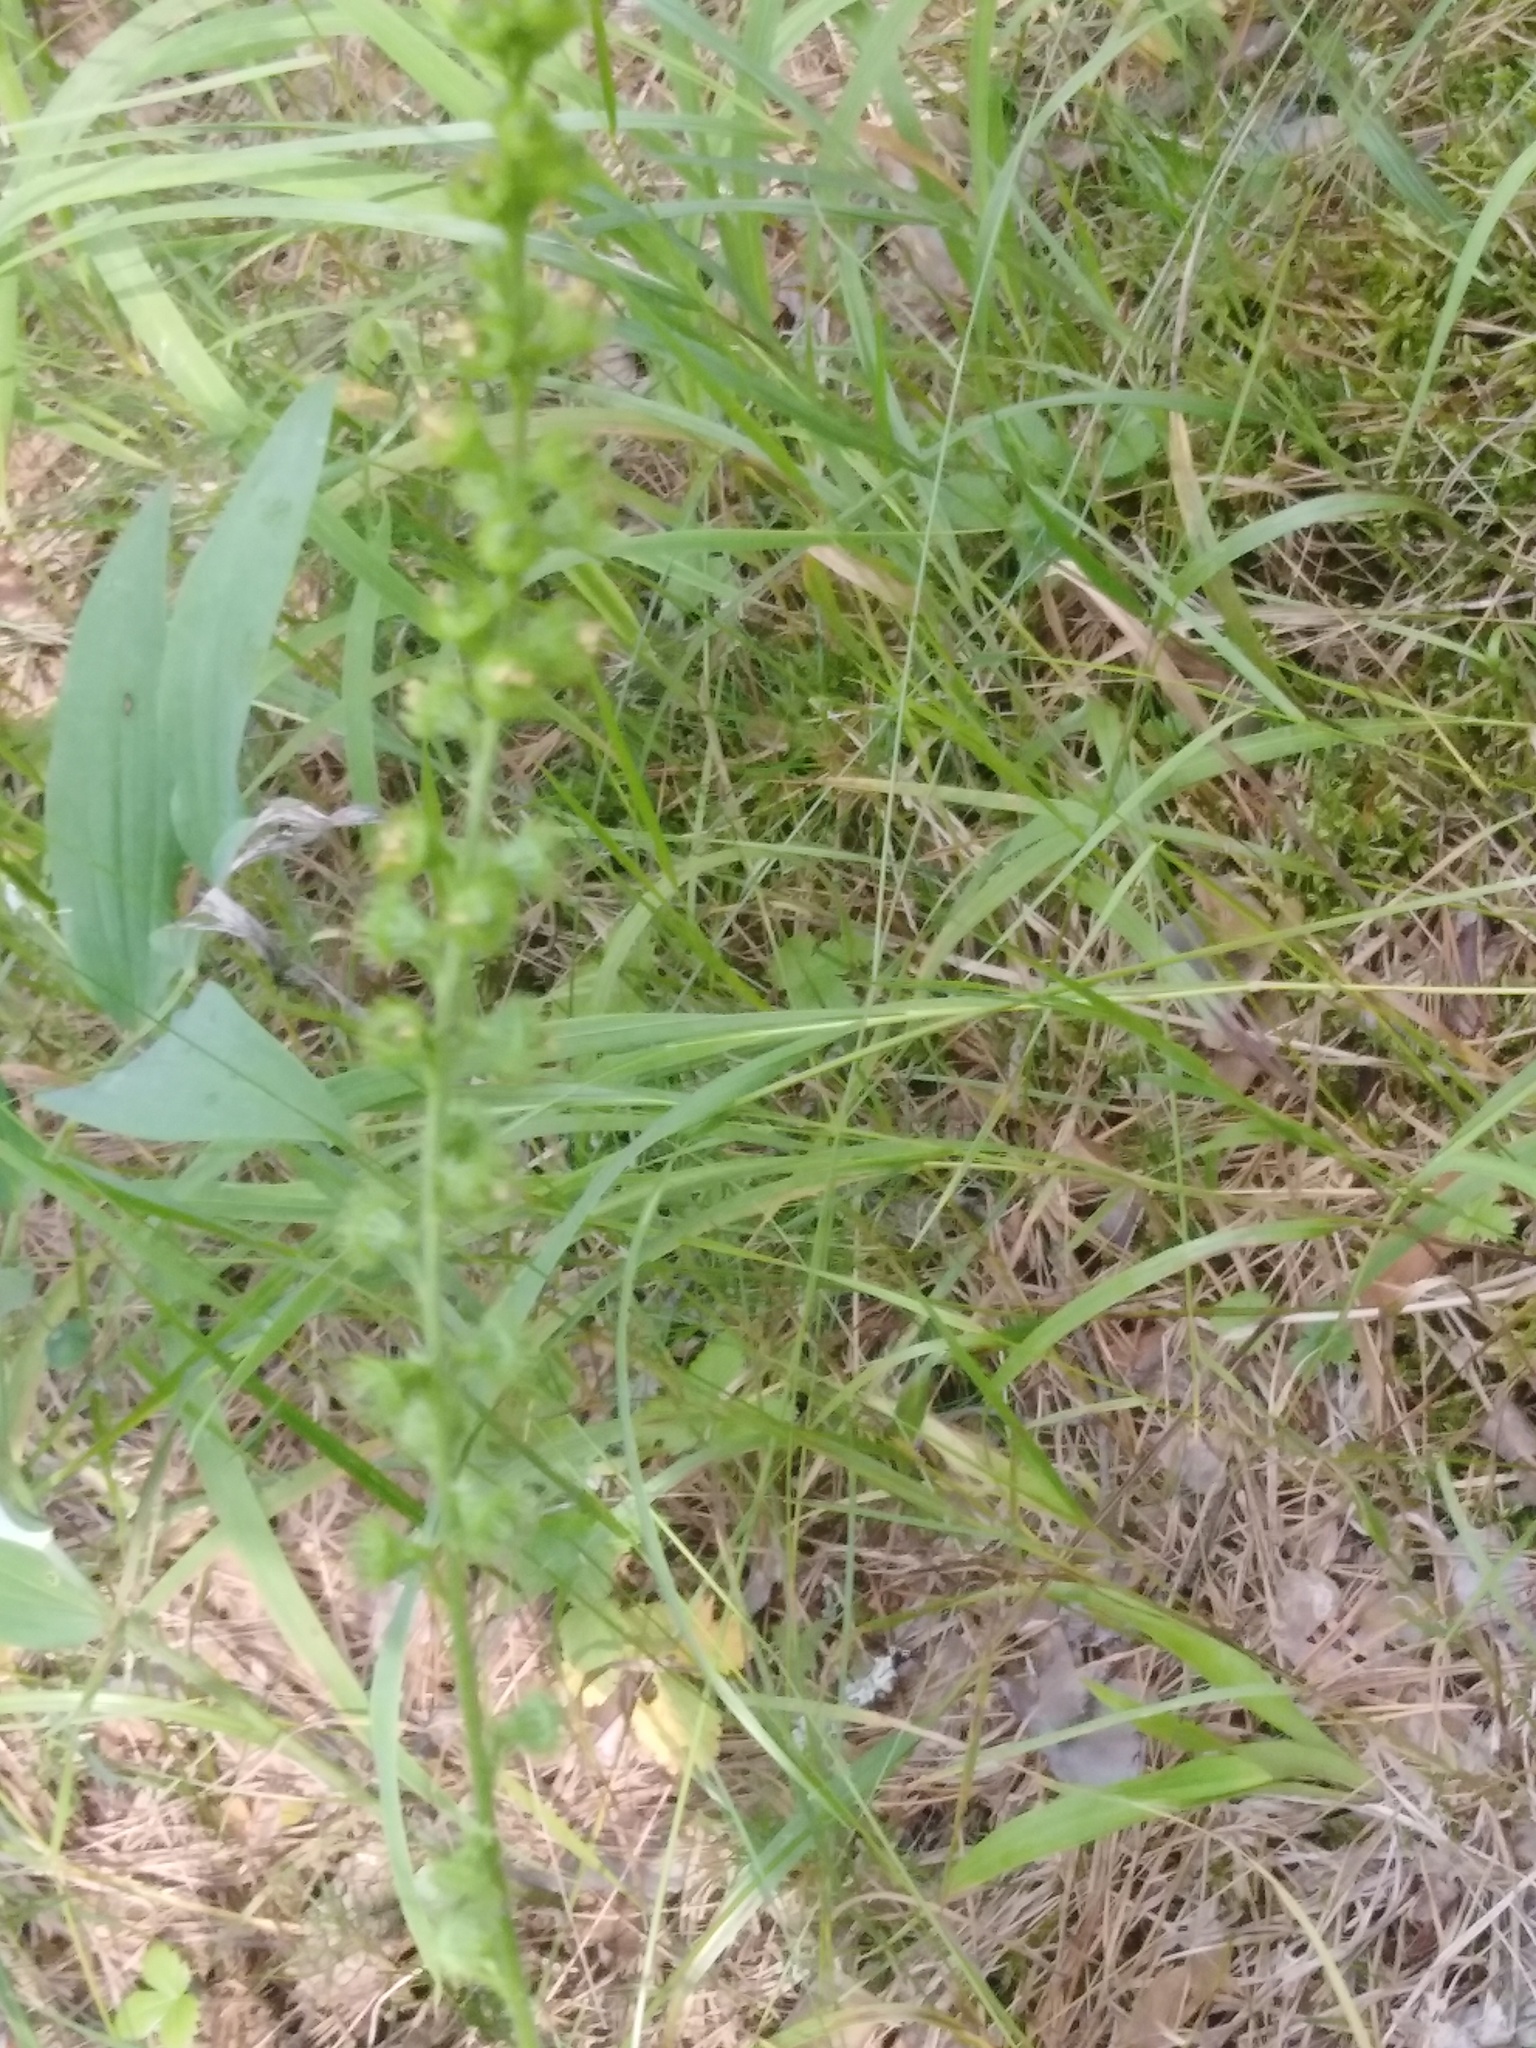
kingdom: Plantae
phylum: Tracheophyta
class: Magnoliopsida
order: Rosales
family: Rosaceae
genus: Agrimonia
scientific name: Agrimonia pilosa
